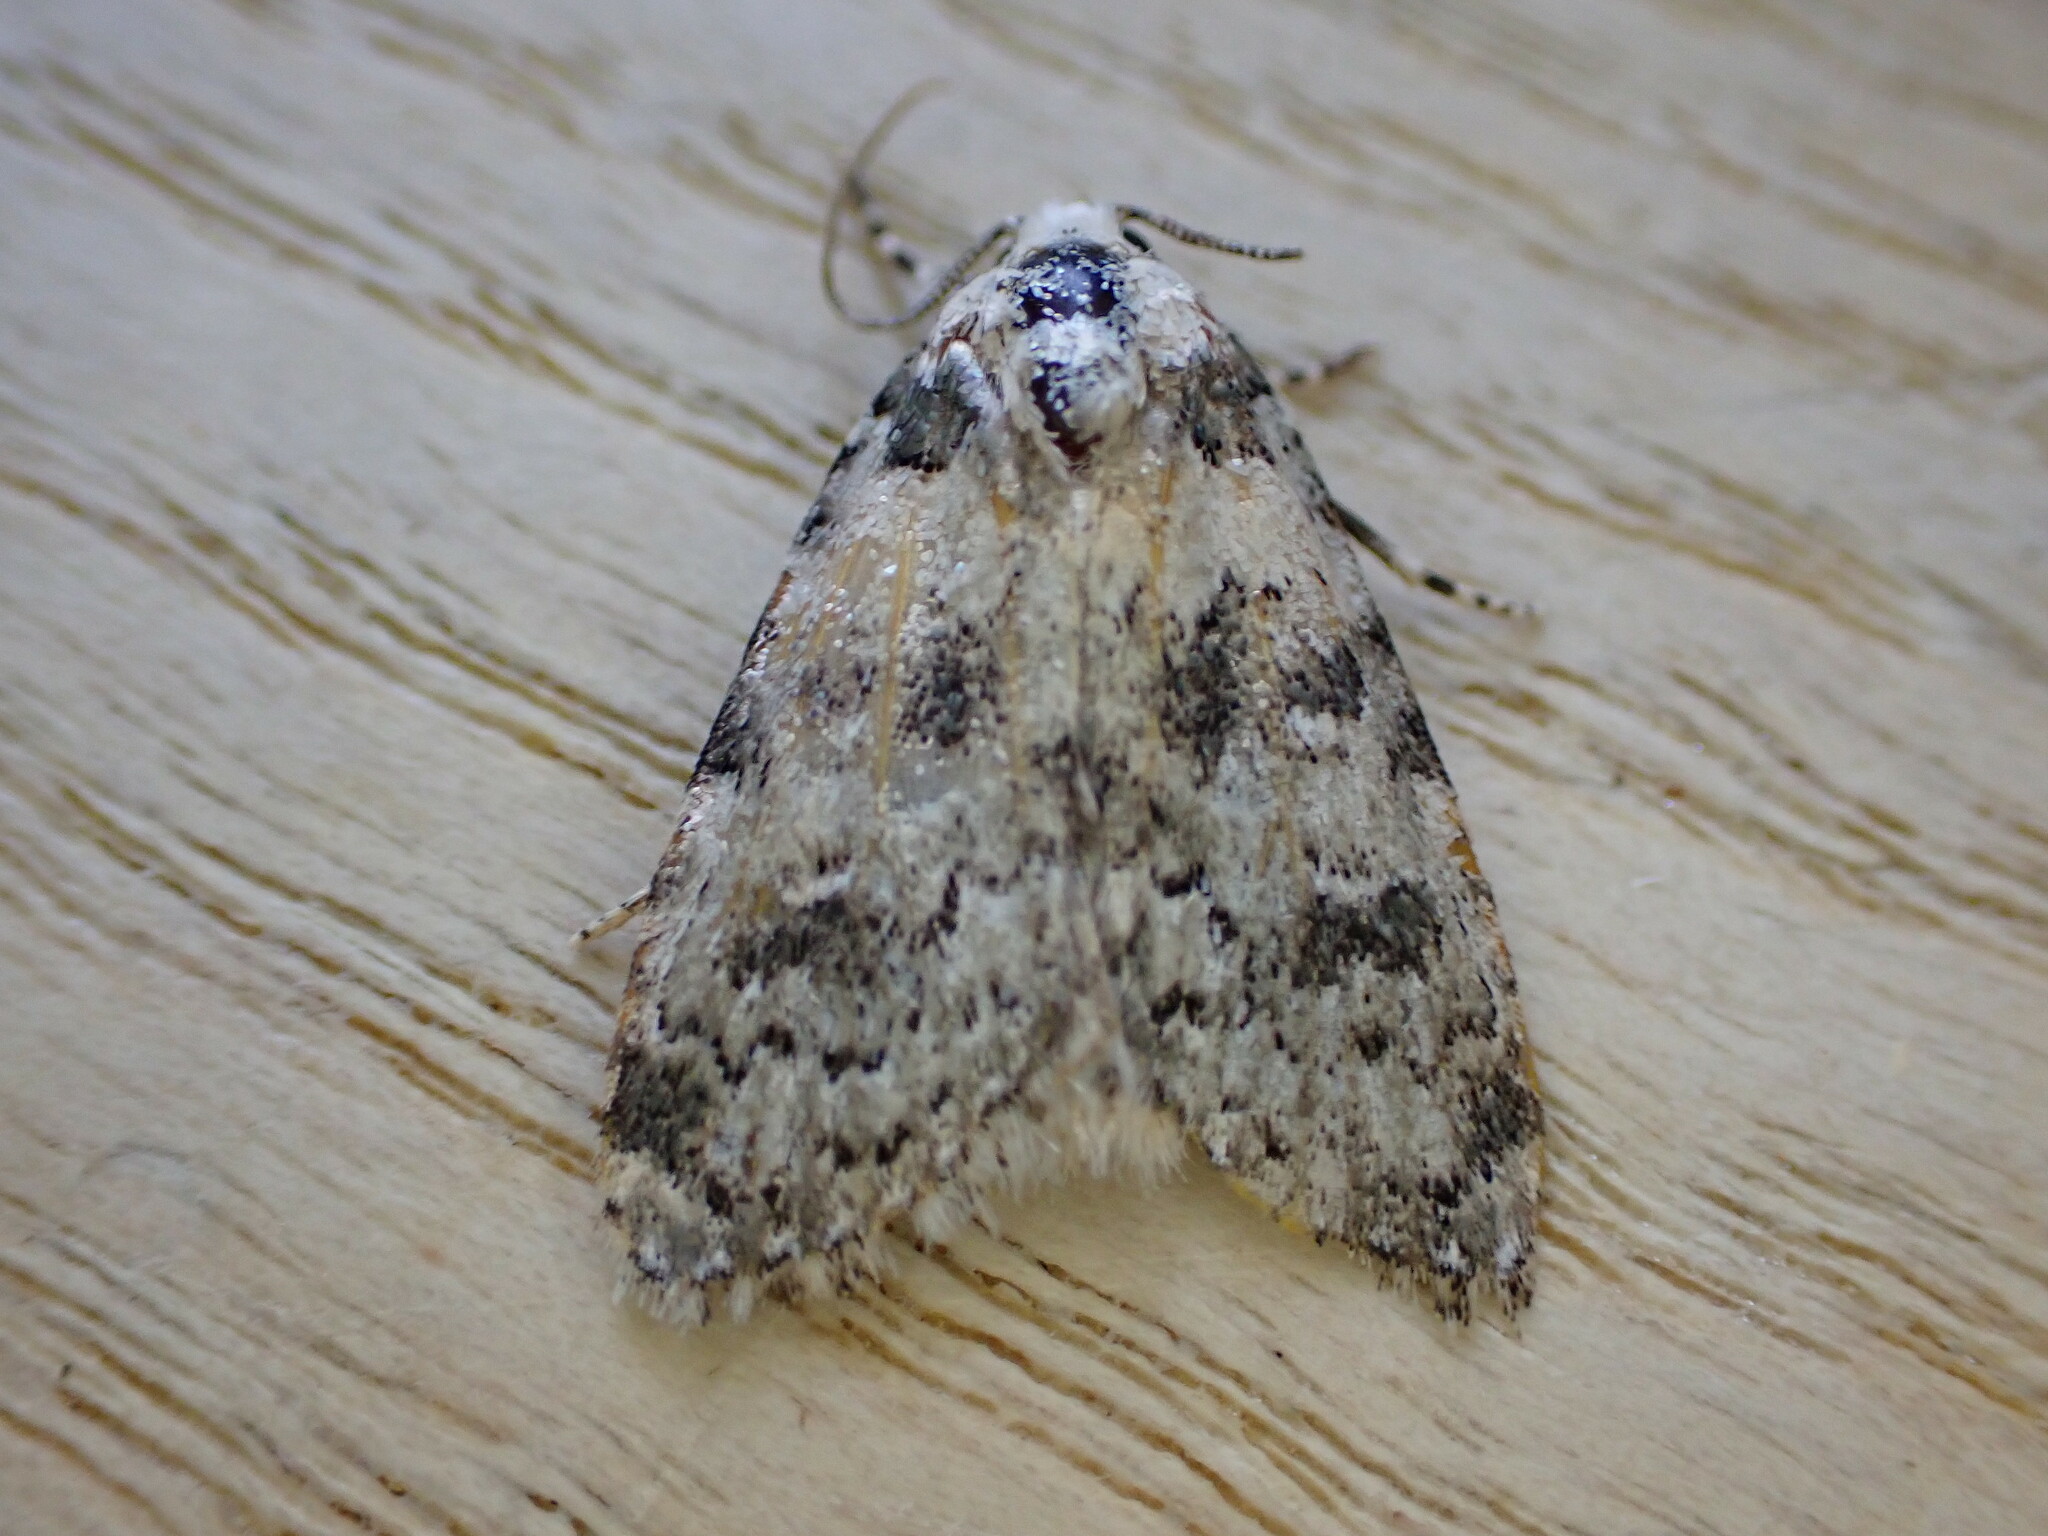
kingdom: Animalia
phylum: Arthropoda
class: Insecta
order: Lepidoptera
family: Noctuidae
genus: Bryophila
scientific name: Bryophila domestica
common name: Marbled beauty
